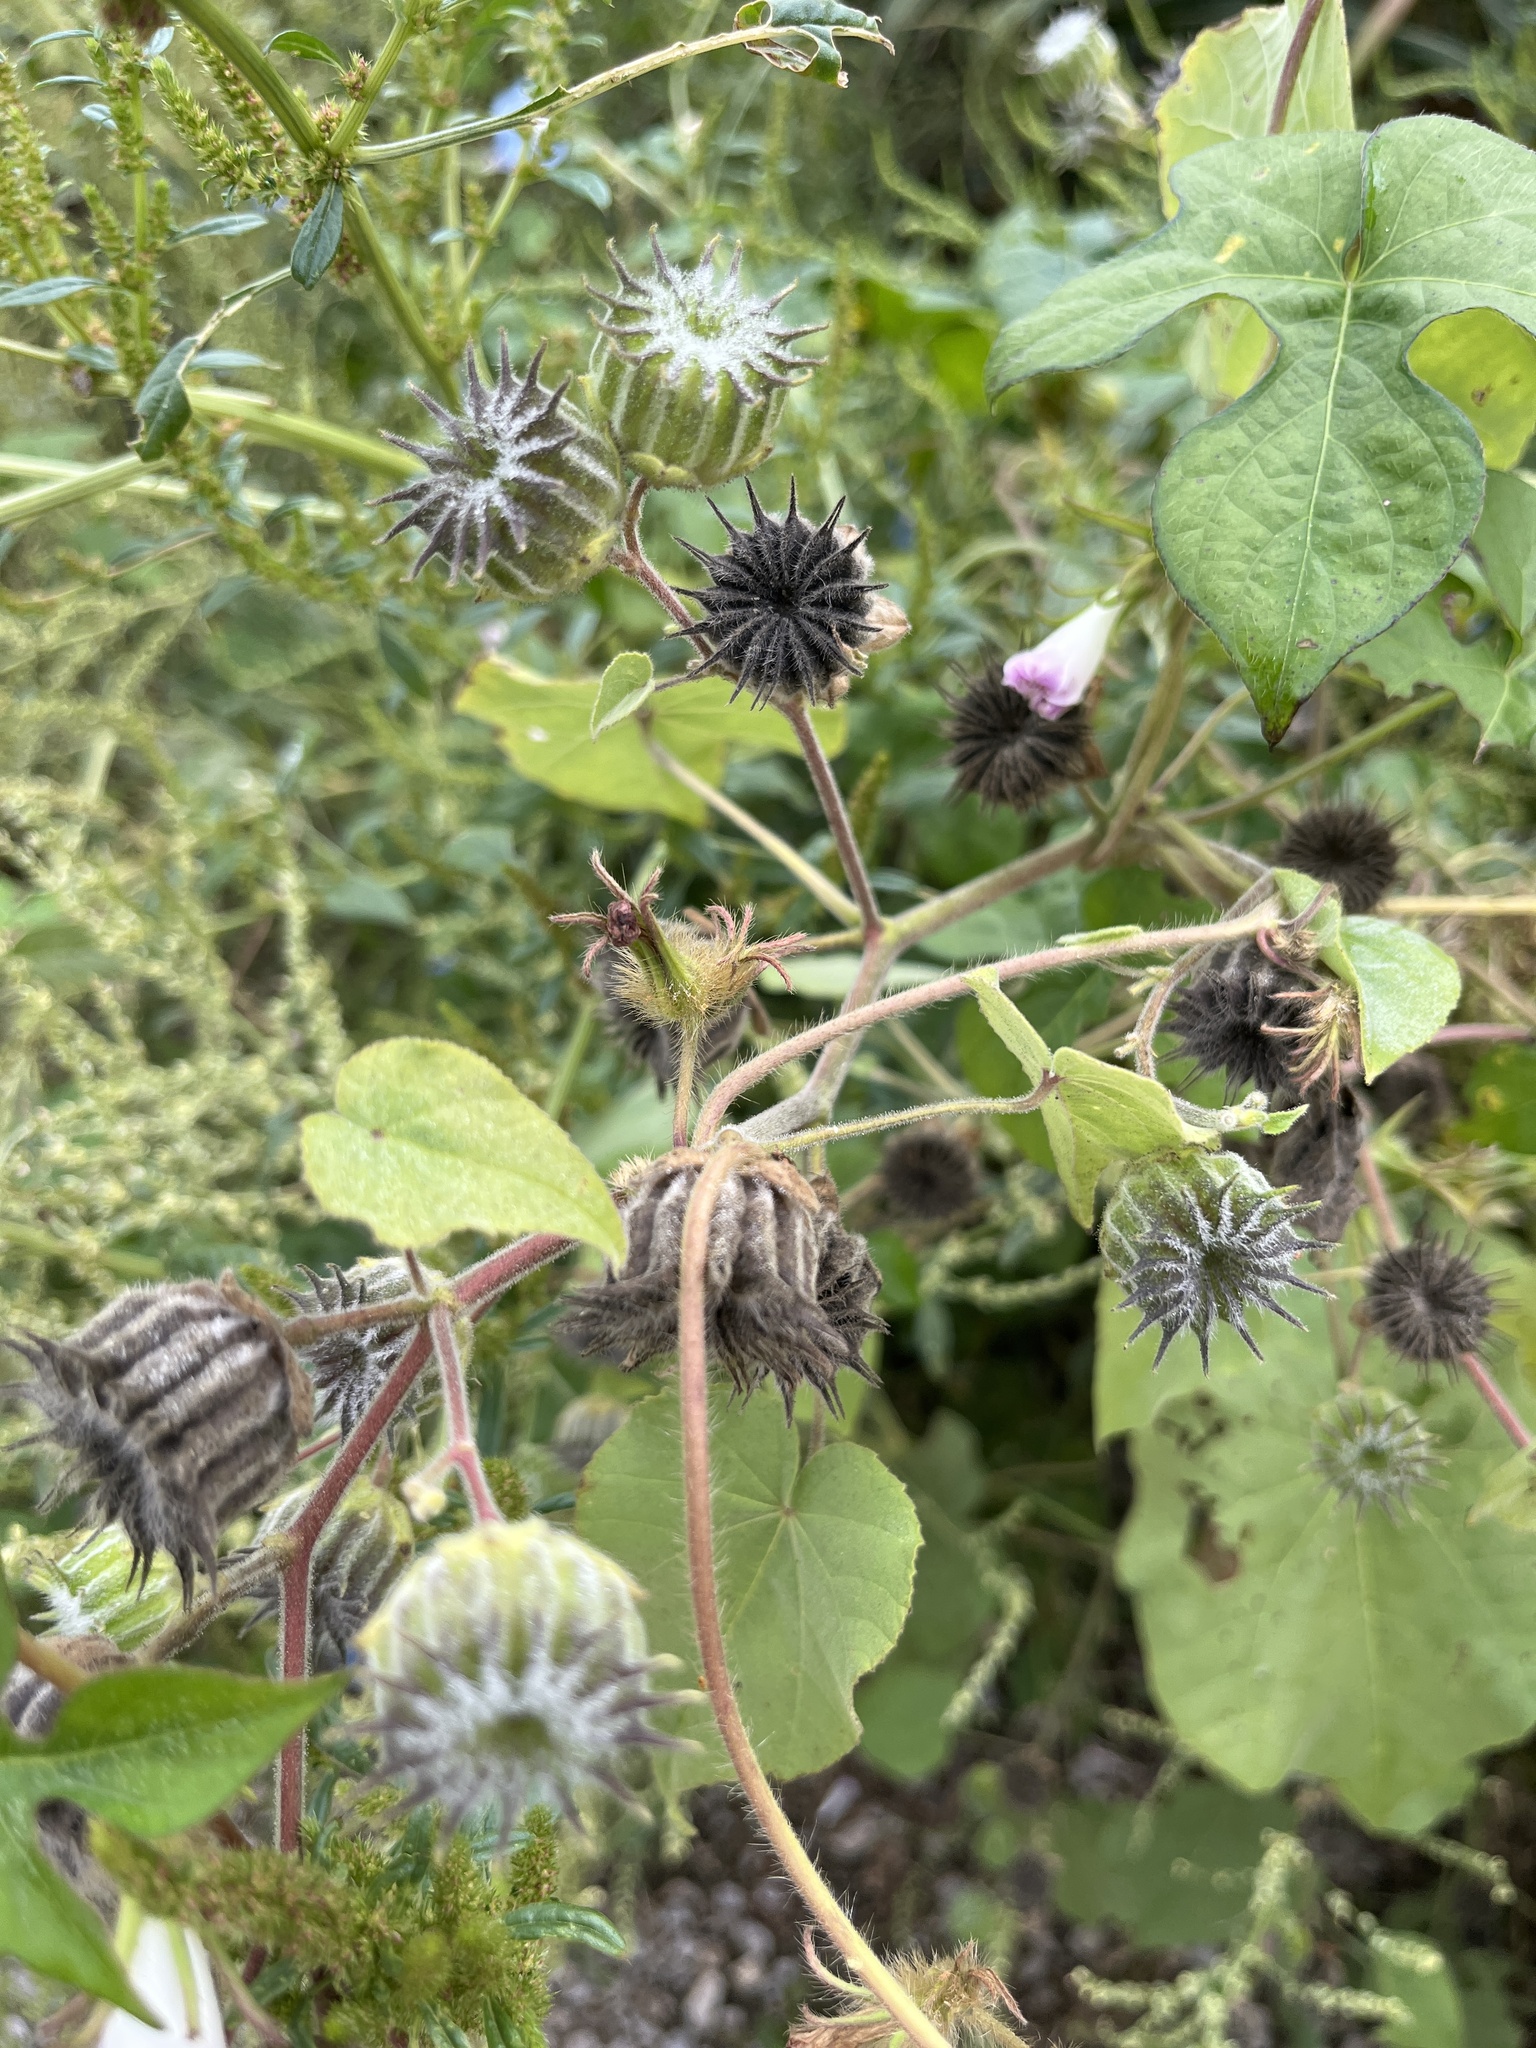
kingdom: Plantae
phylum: Tracheophyta
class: Magnoliopsida
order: Malvales
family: Malvaceae
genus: Abutilon
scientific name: Abutilon theophrasti
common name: Velvetleaf
